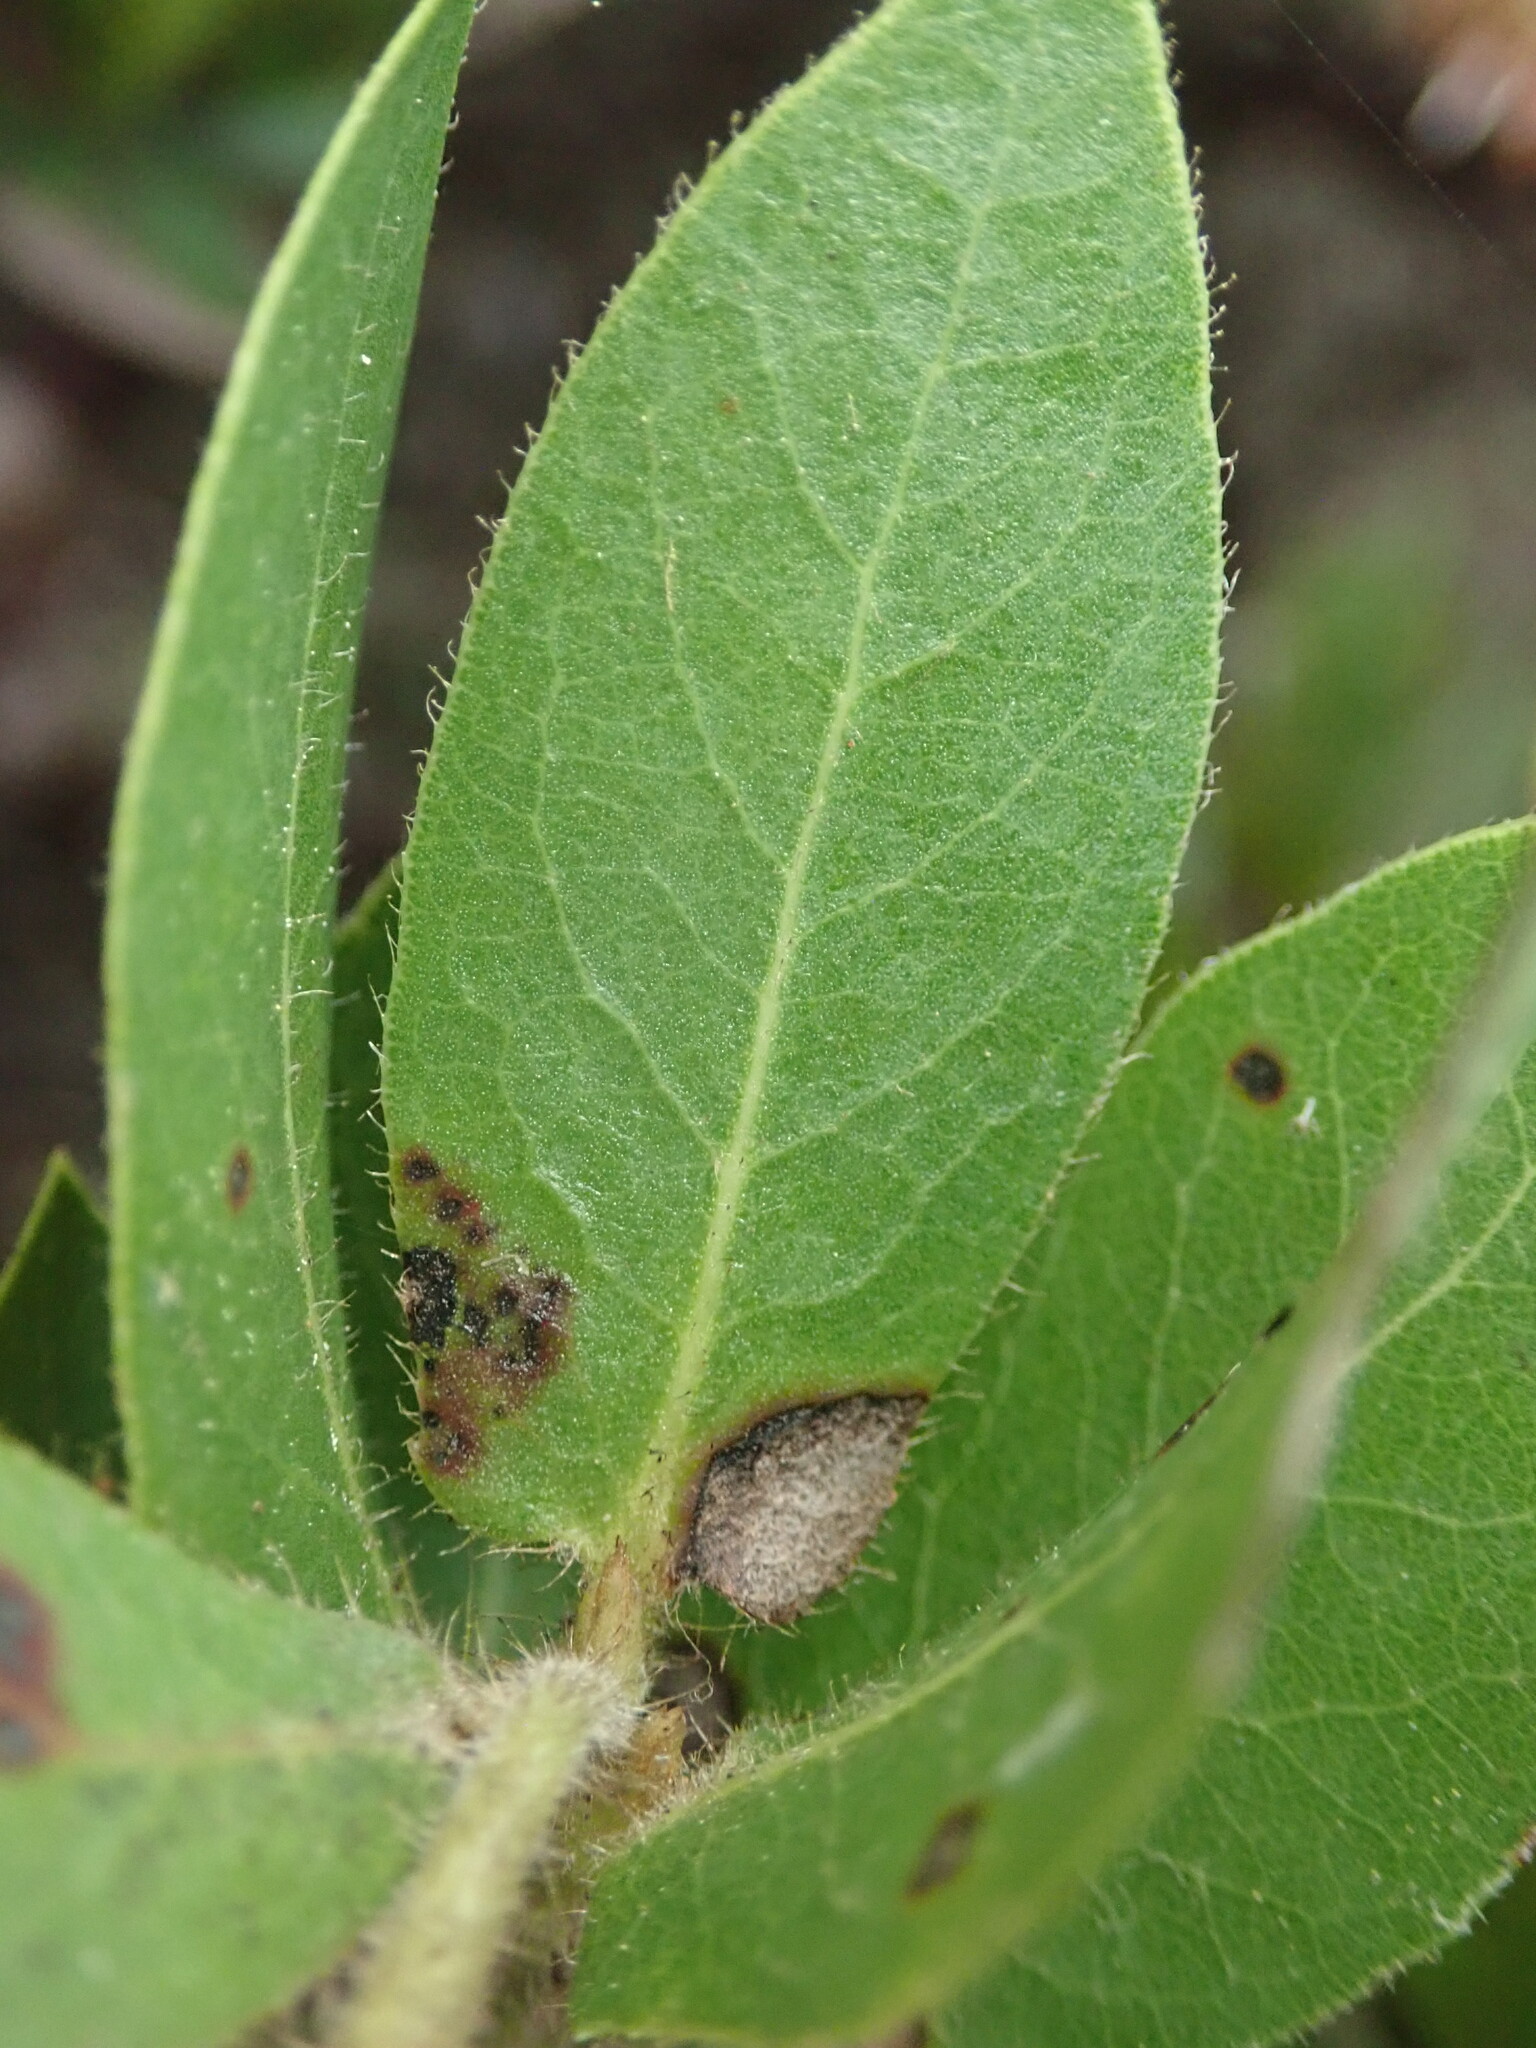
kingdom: Plantae
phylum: Tracheophyta
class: Magnoliopsida
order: Ericales
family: Ericaceae
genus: Arctostaphylos
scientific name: Arctostaphylos montaraensis
